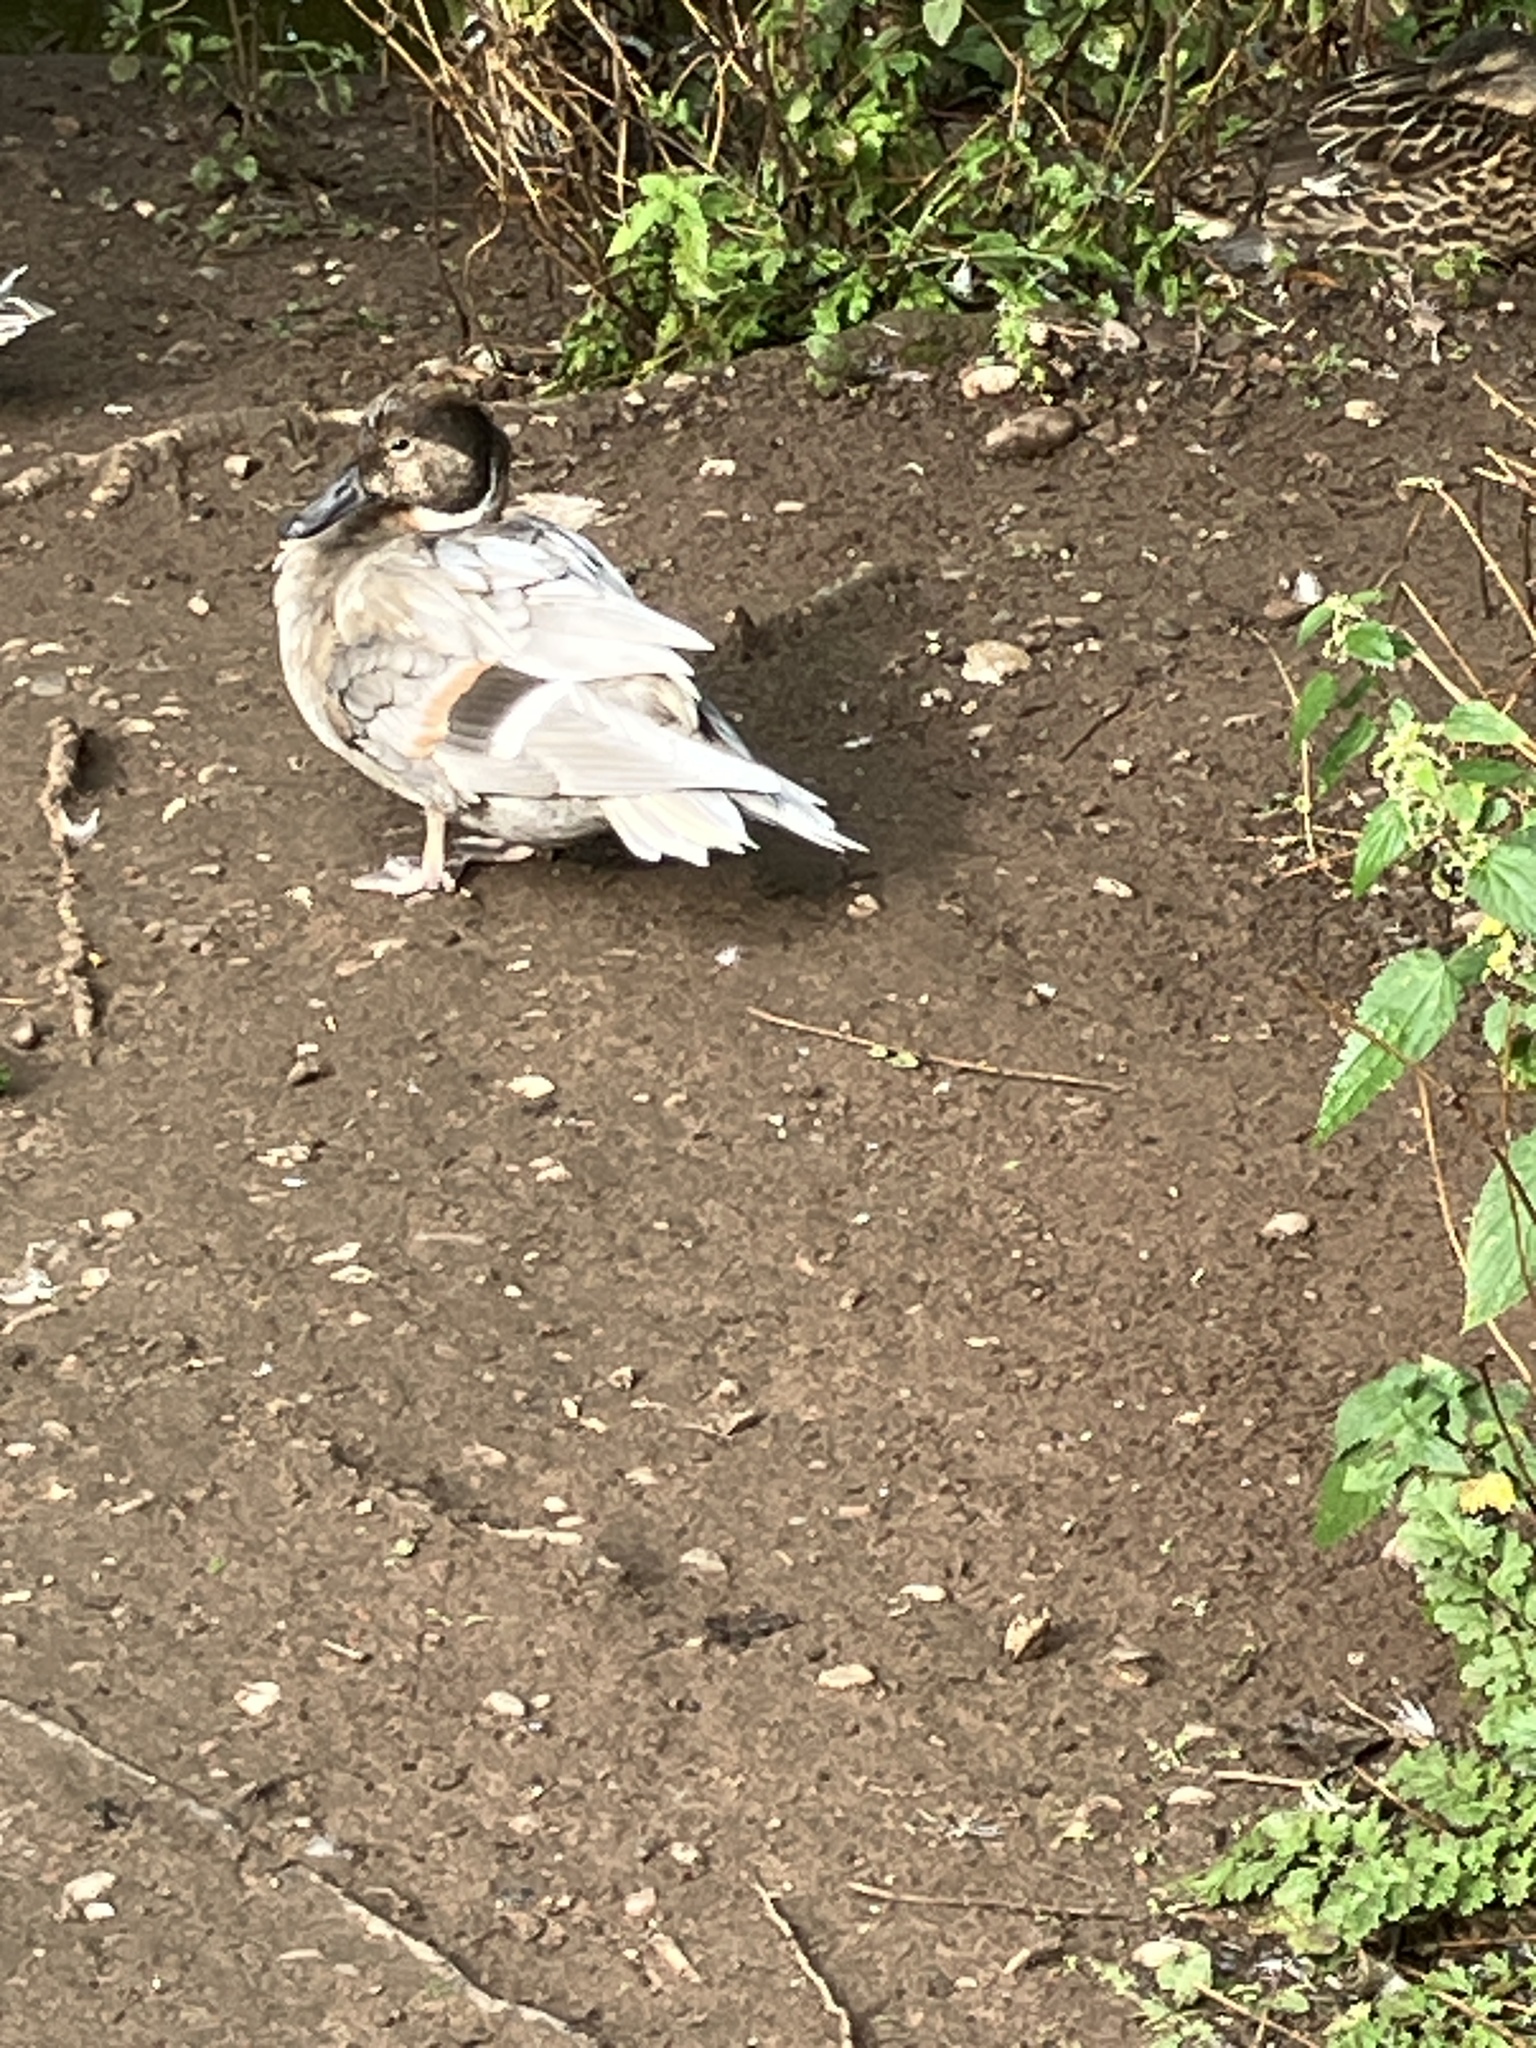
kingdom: Animalia
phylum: Chordata
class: Aves
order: Anseriformes
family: Anatidae
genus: Anas
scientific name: Anas
